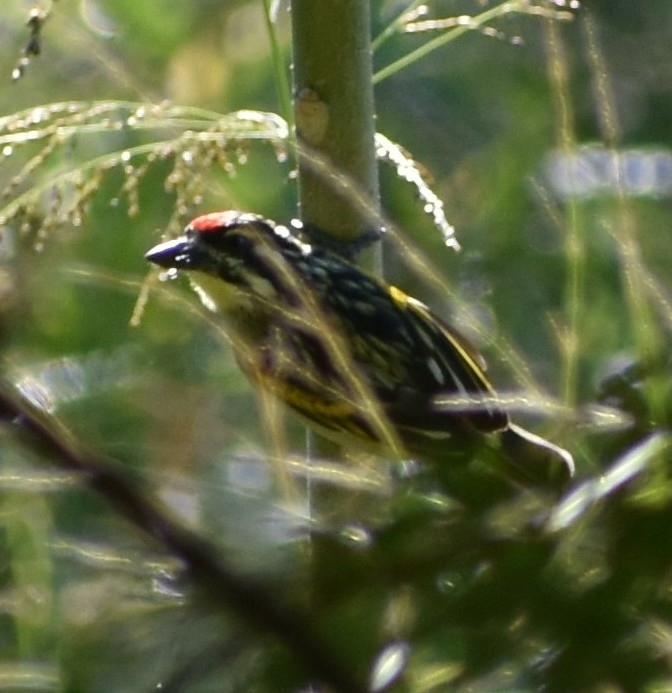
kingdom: Animalia
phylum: Chordata
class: Aves
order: Piciformes
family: Lybiidae
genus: Pogoniulus
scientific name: Pogoniulus pusillus
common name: Red-fronted tinkerbird
